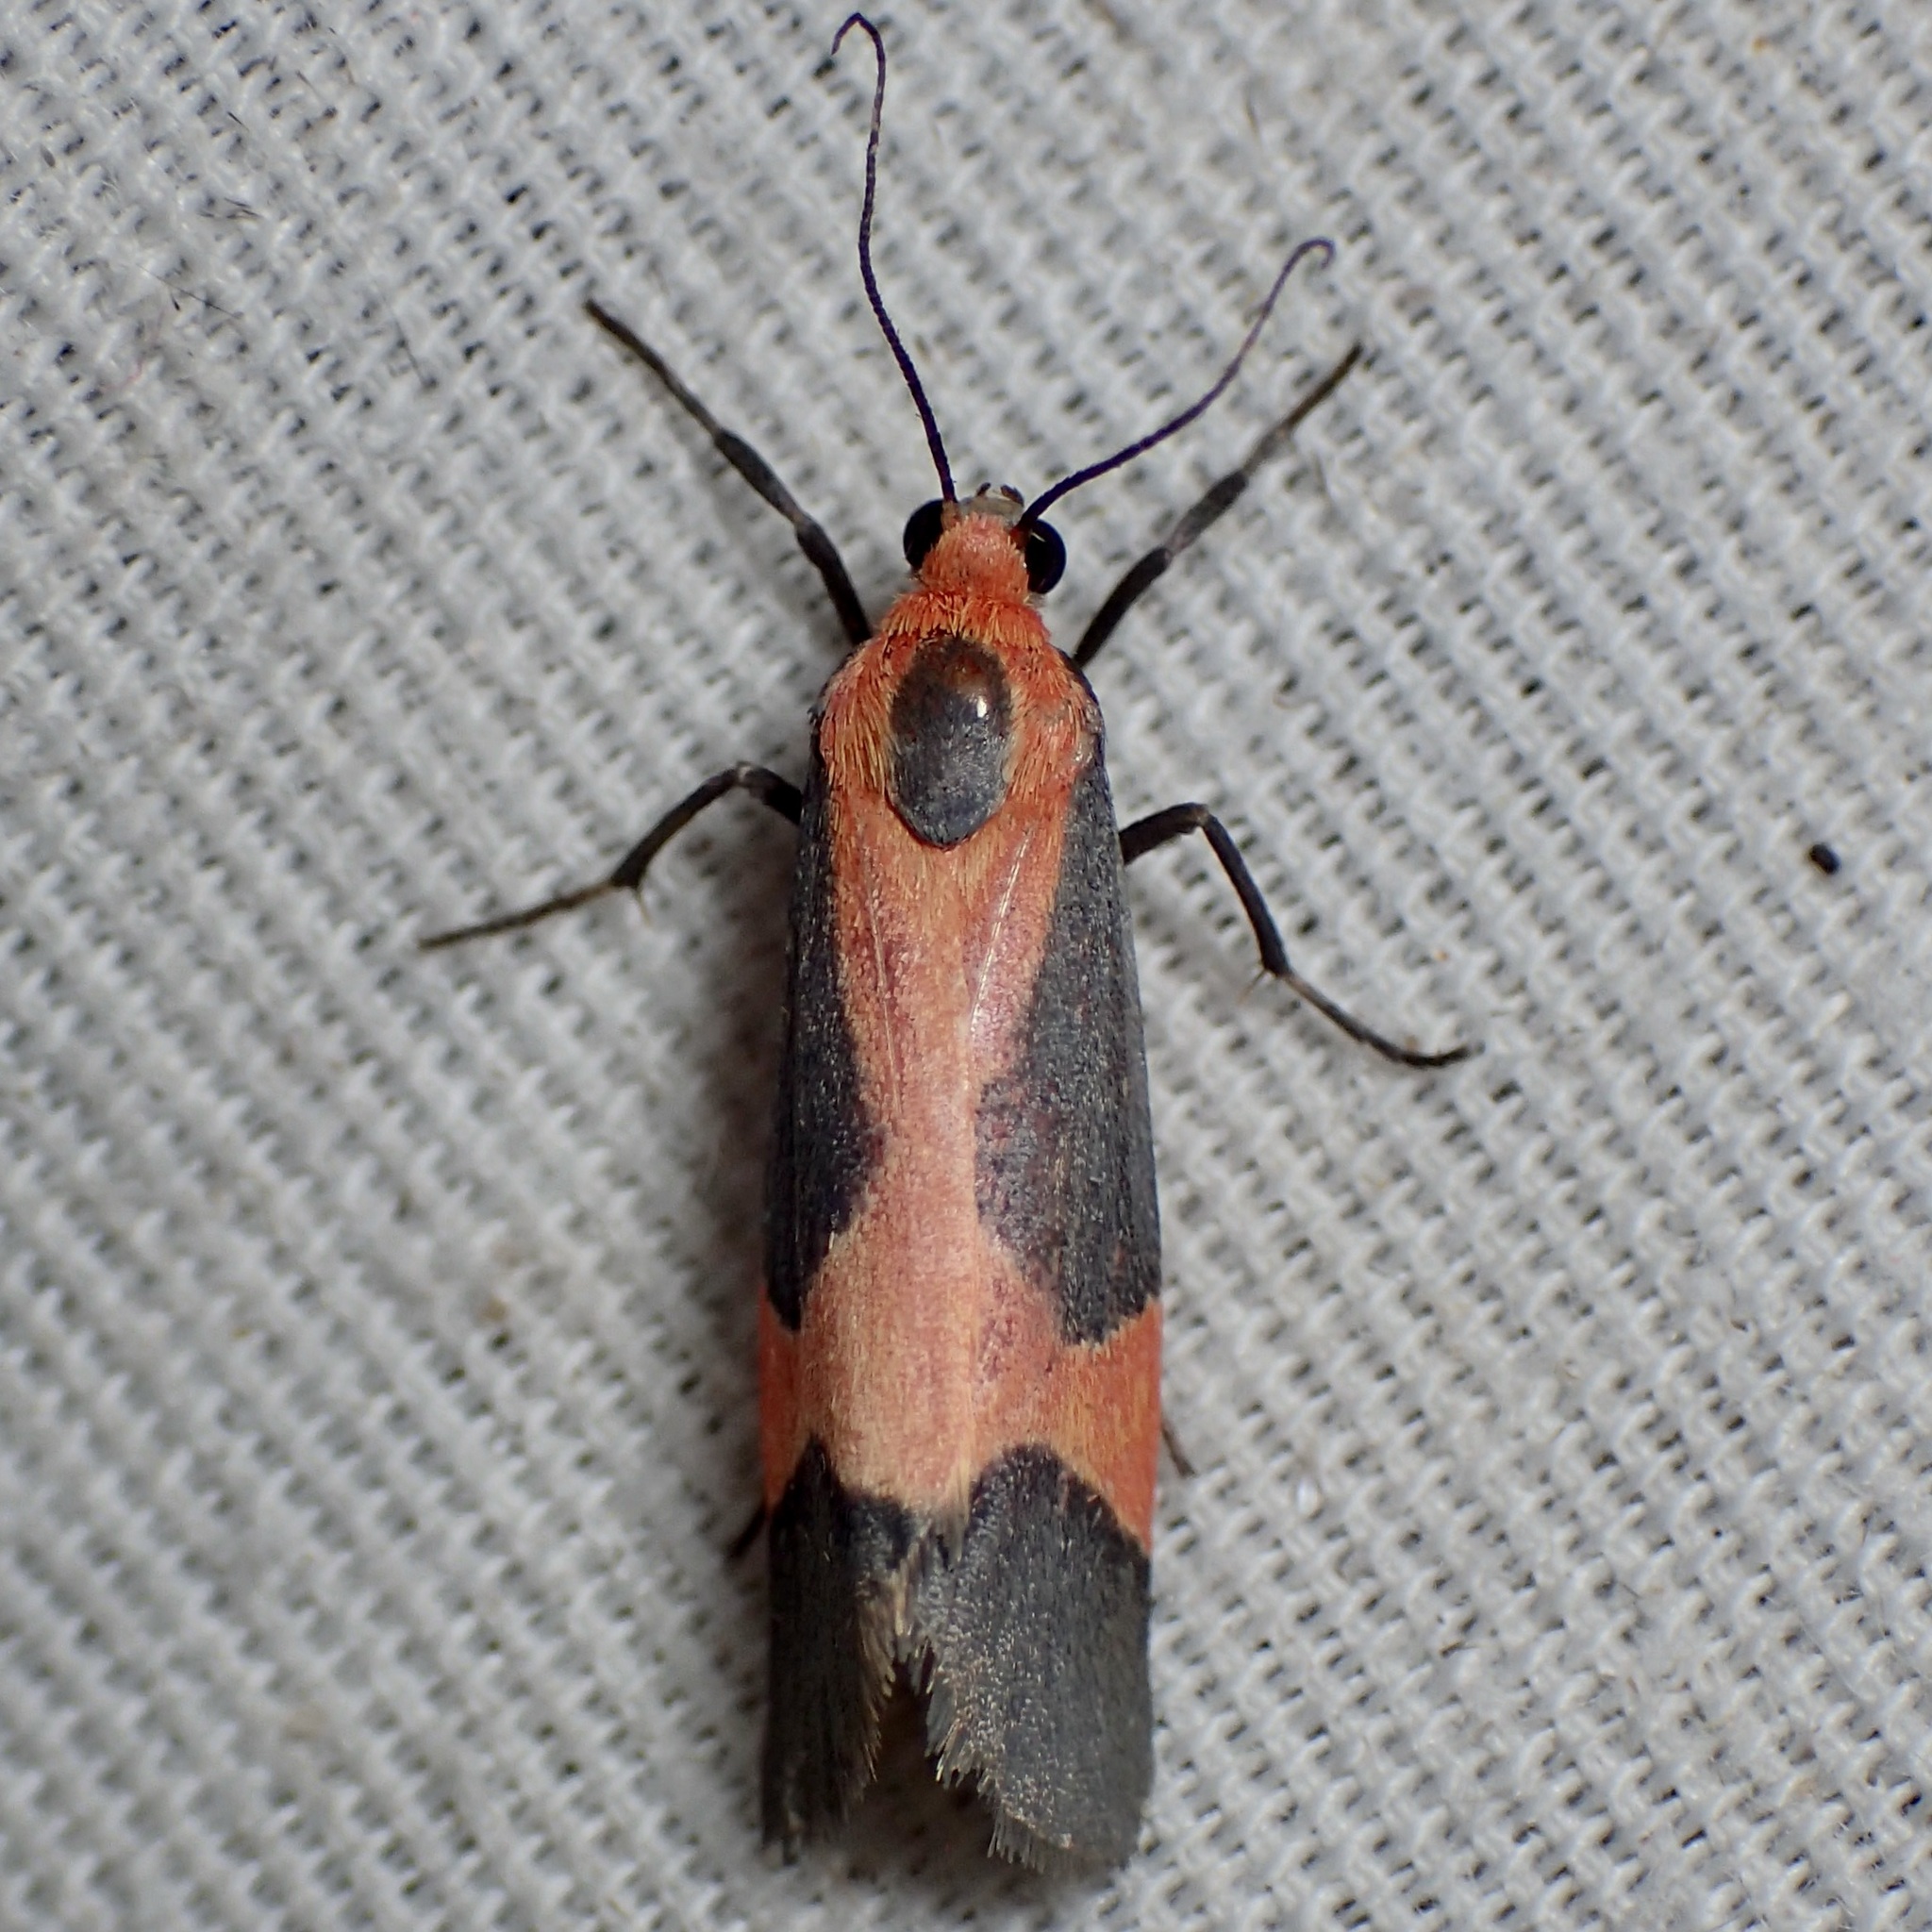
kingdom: Animalia
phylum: Arthropoda
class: Insecta
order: Lepidoptera
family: Erebidae
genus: Cisthene
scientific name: Cisthene martini
